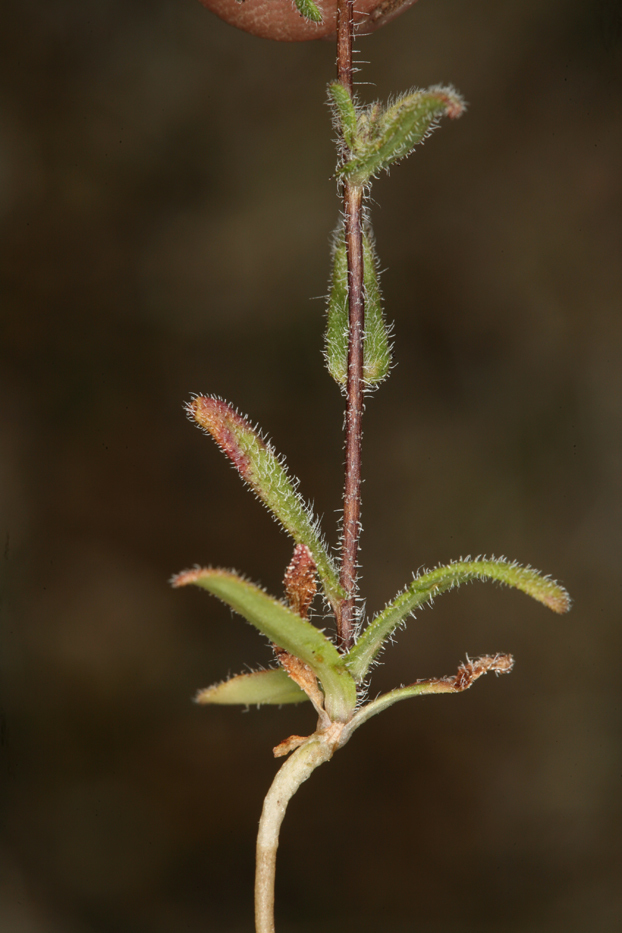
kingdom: Plantae
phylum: Tracheophyta
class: Magnoliopsida
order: Asterales
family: Asteraceae
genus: Layia
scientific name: Layia glandulosa
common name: White layia
